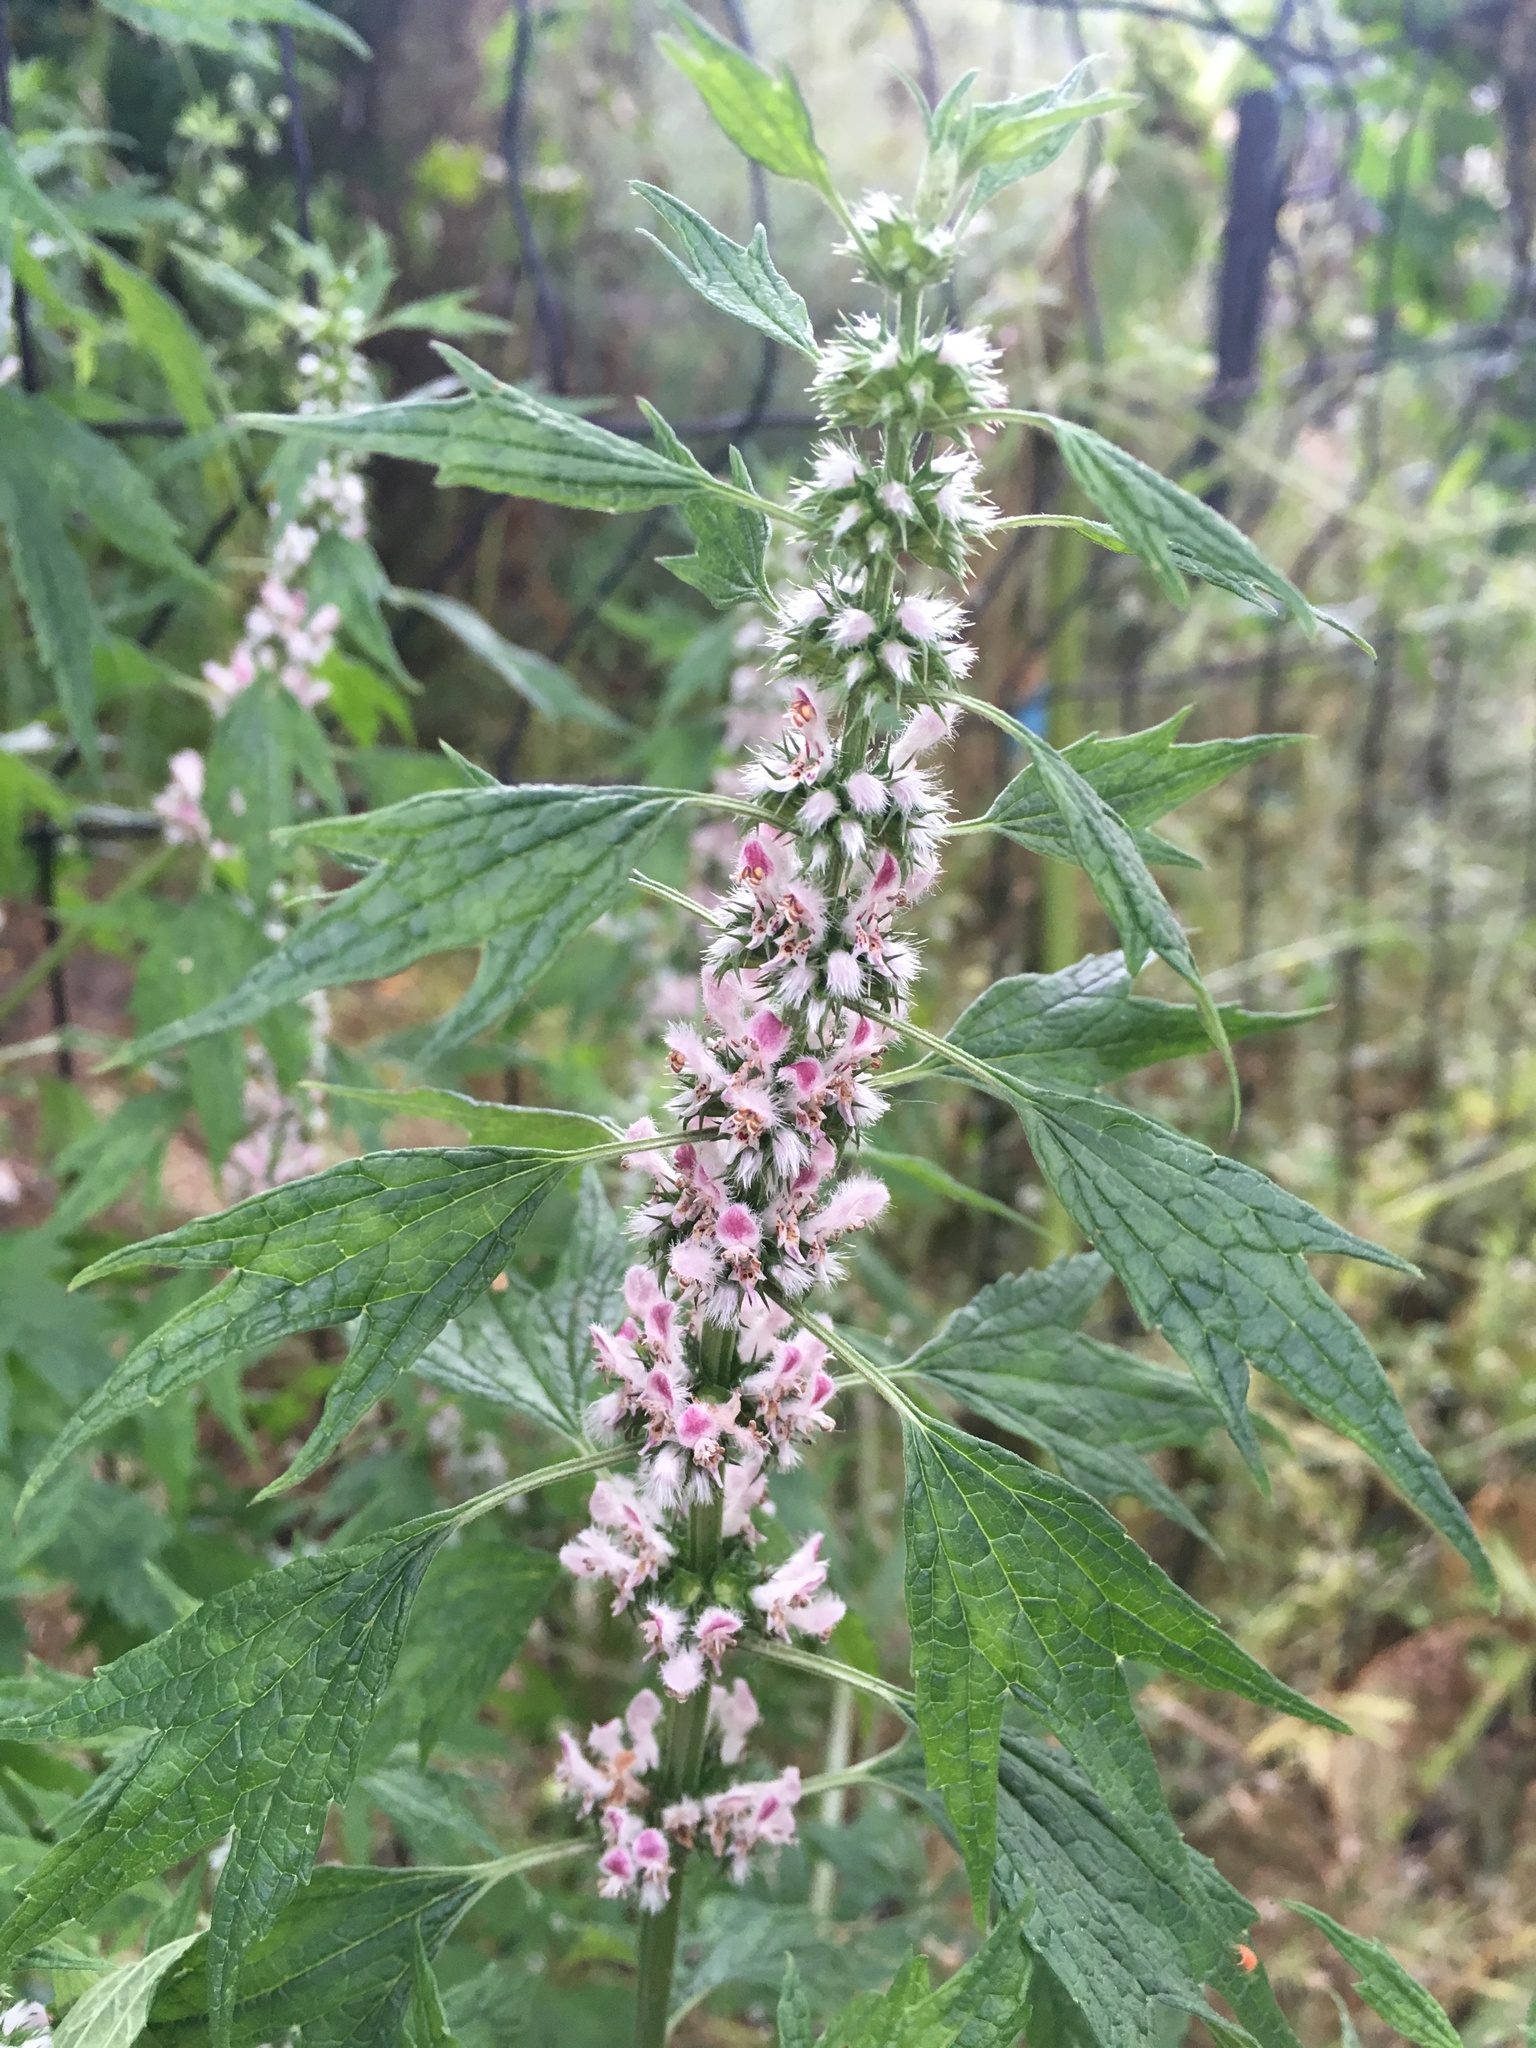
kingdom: Plantae
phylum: Tracheophyta
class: Magnoliopsida
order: Lamiales
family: Lamiaceae
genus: Leonurus
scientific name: Leonurus cardiaca
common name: Motherwort
